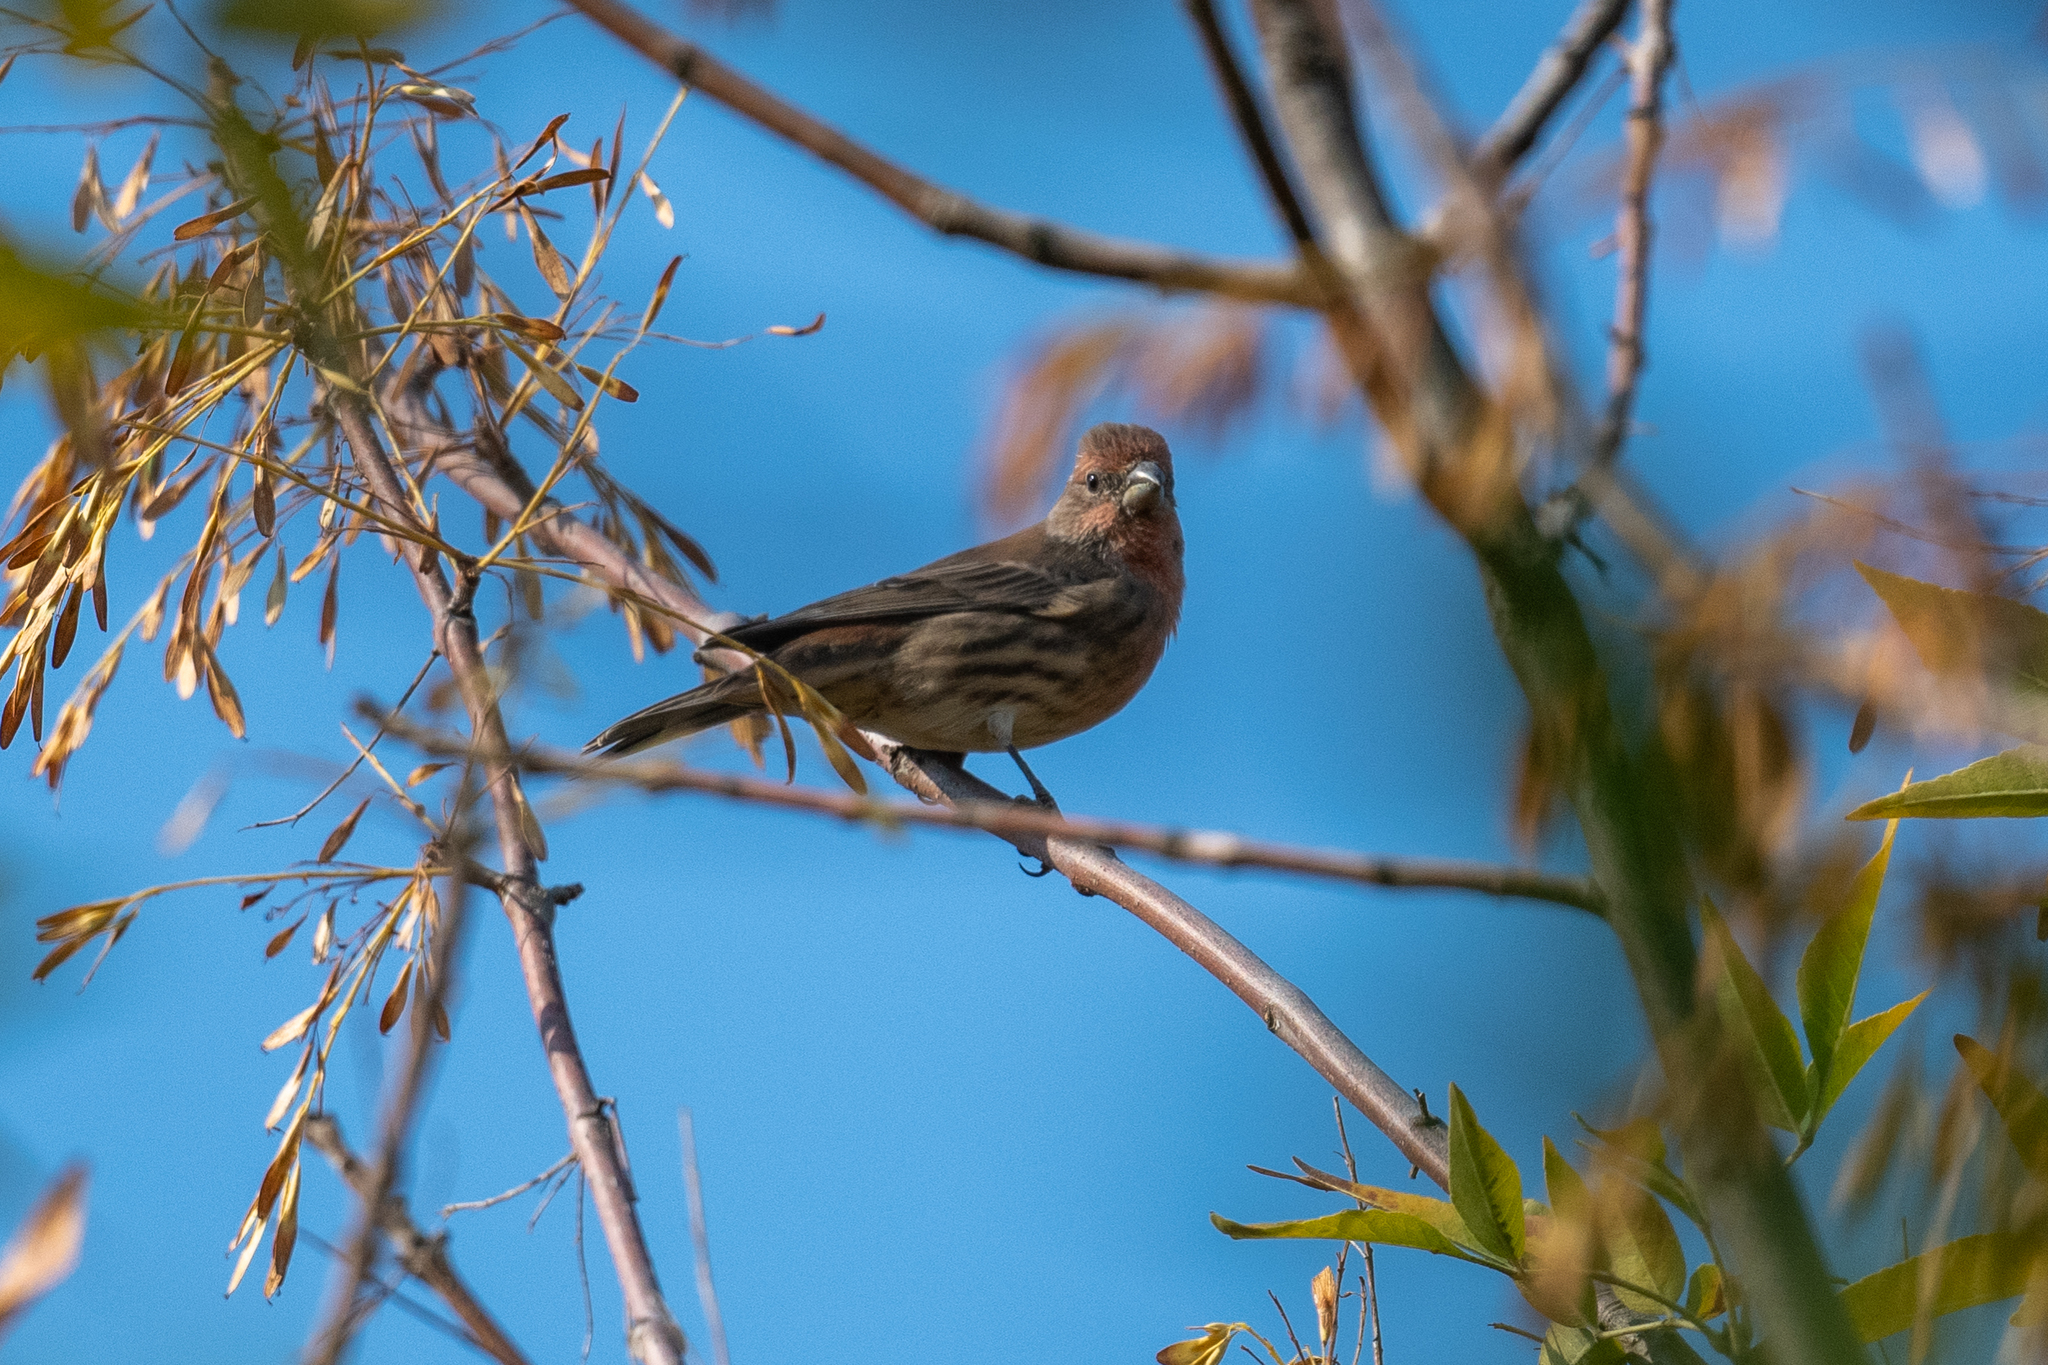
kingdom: Animalia
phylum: Chordata
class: Aves
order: Passeriformes
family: Fringillidae
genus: Haemorhous
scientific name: Haemorhous mexicanus
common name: House finch
